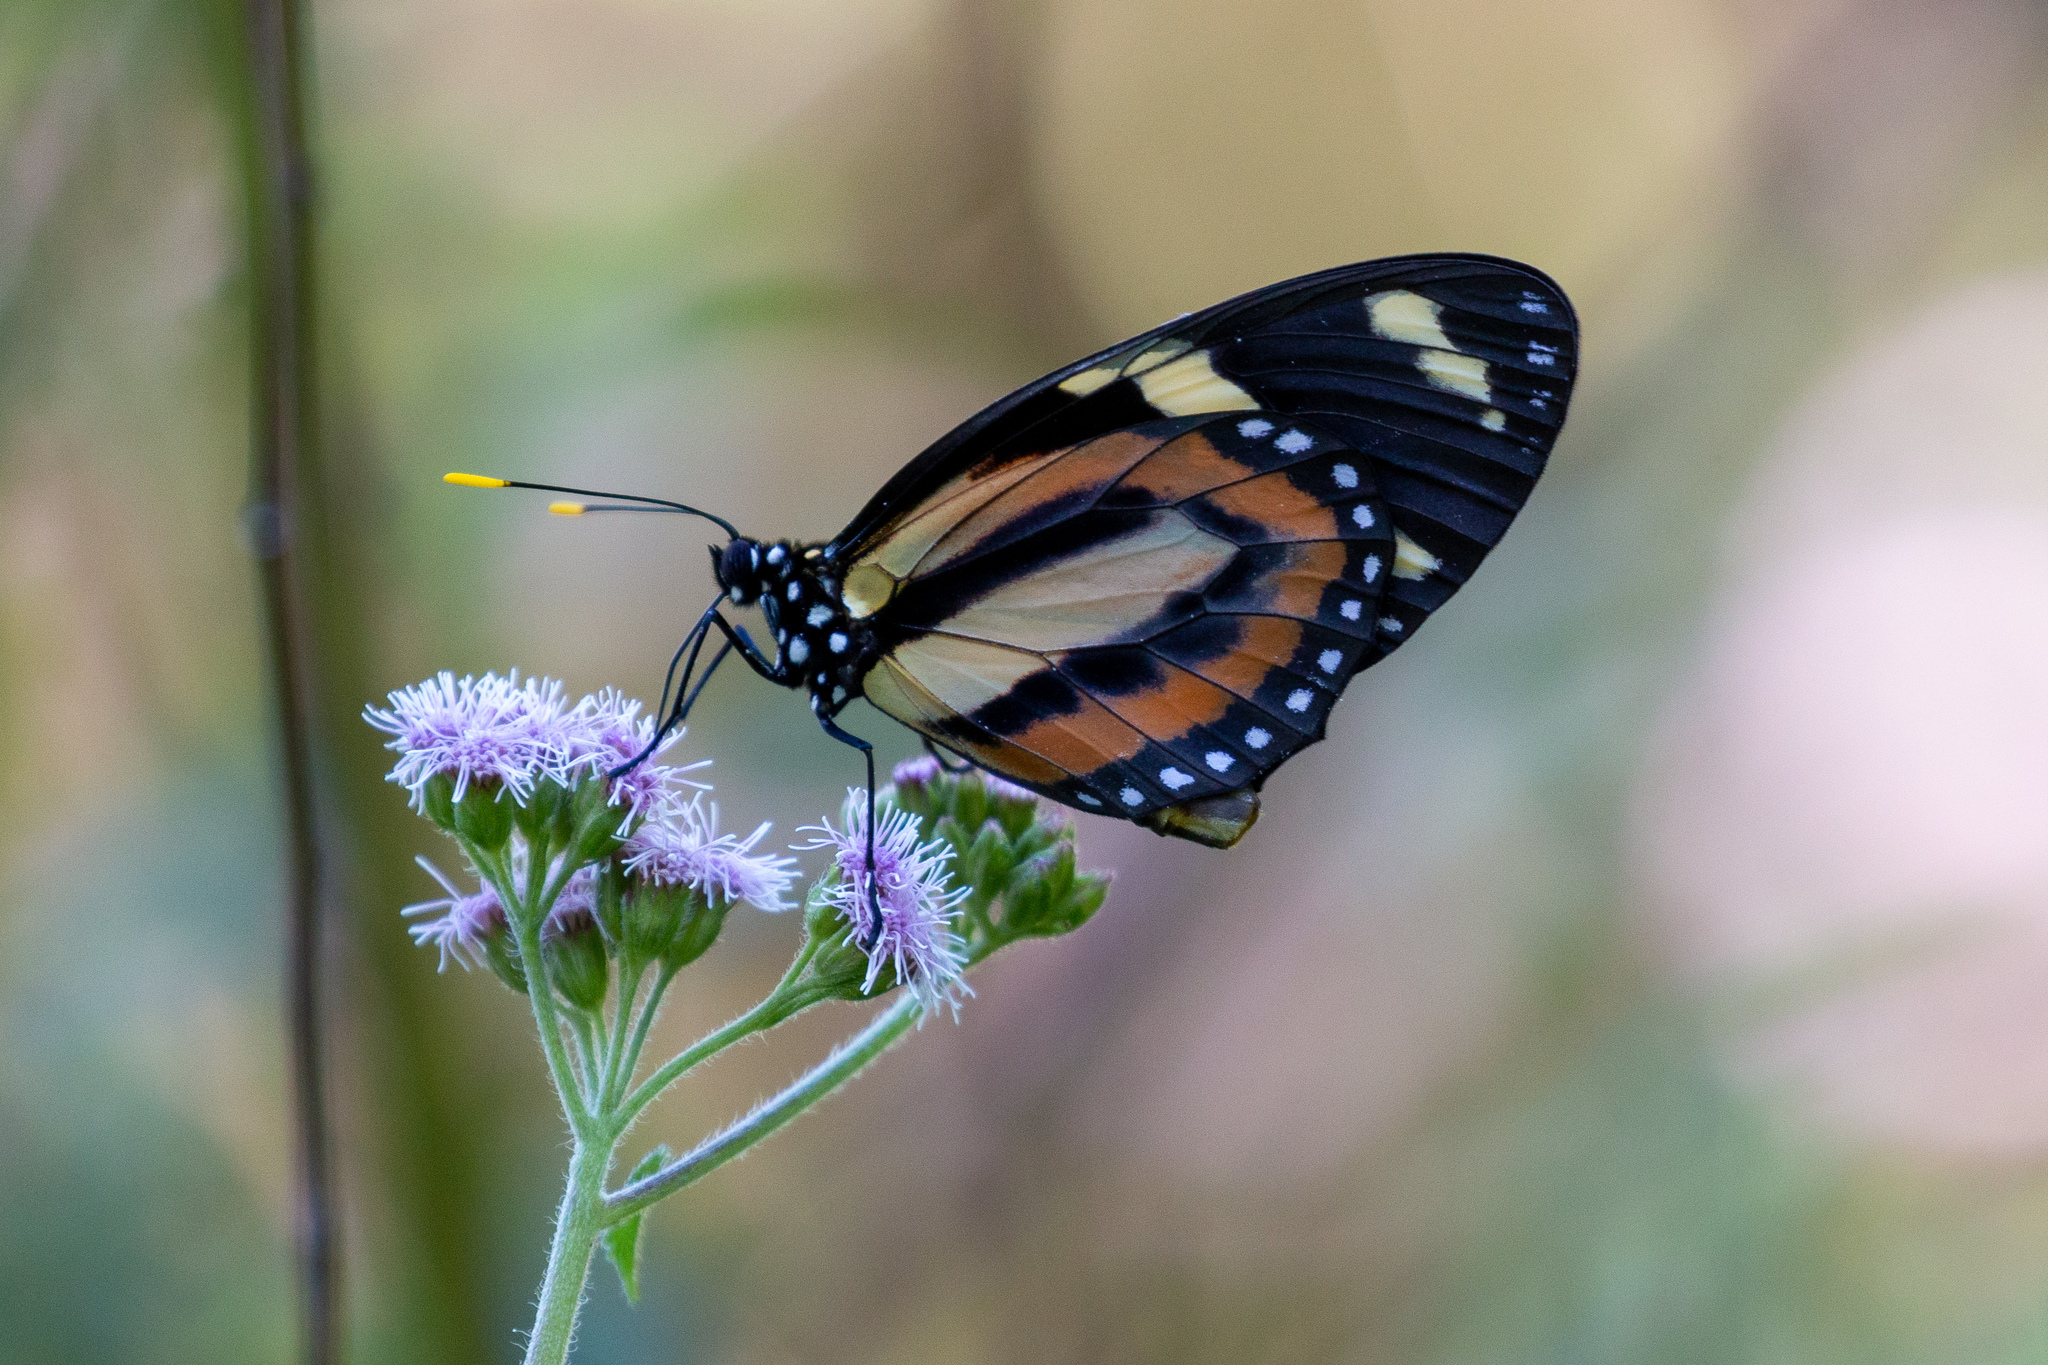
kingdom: Animalia
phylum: Arthropoda
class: Insecta
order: Lepidoptera
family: Nymphalidae
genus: Lycorea
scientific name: Lycorea cleobaea
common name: Tiger mimic-queen
